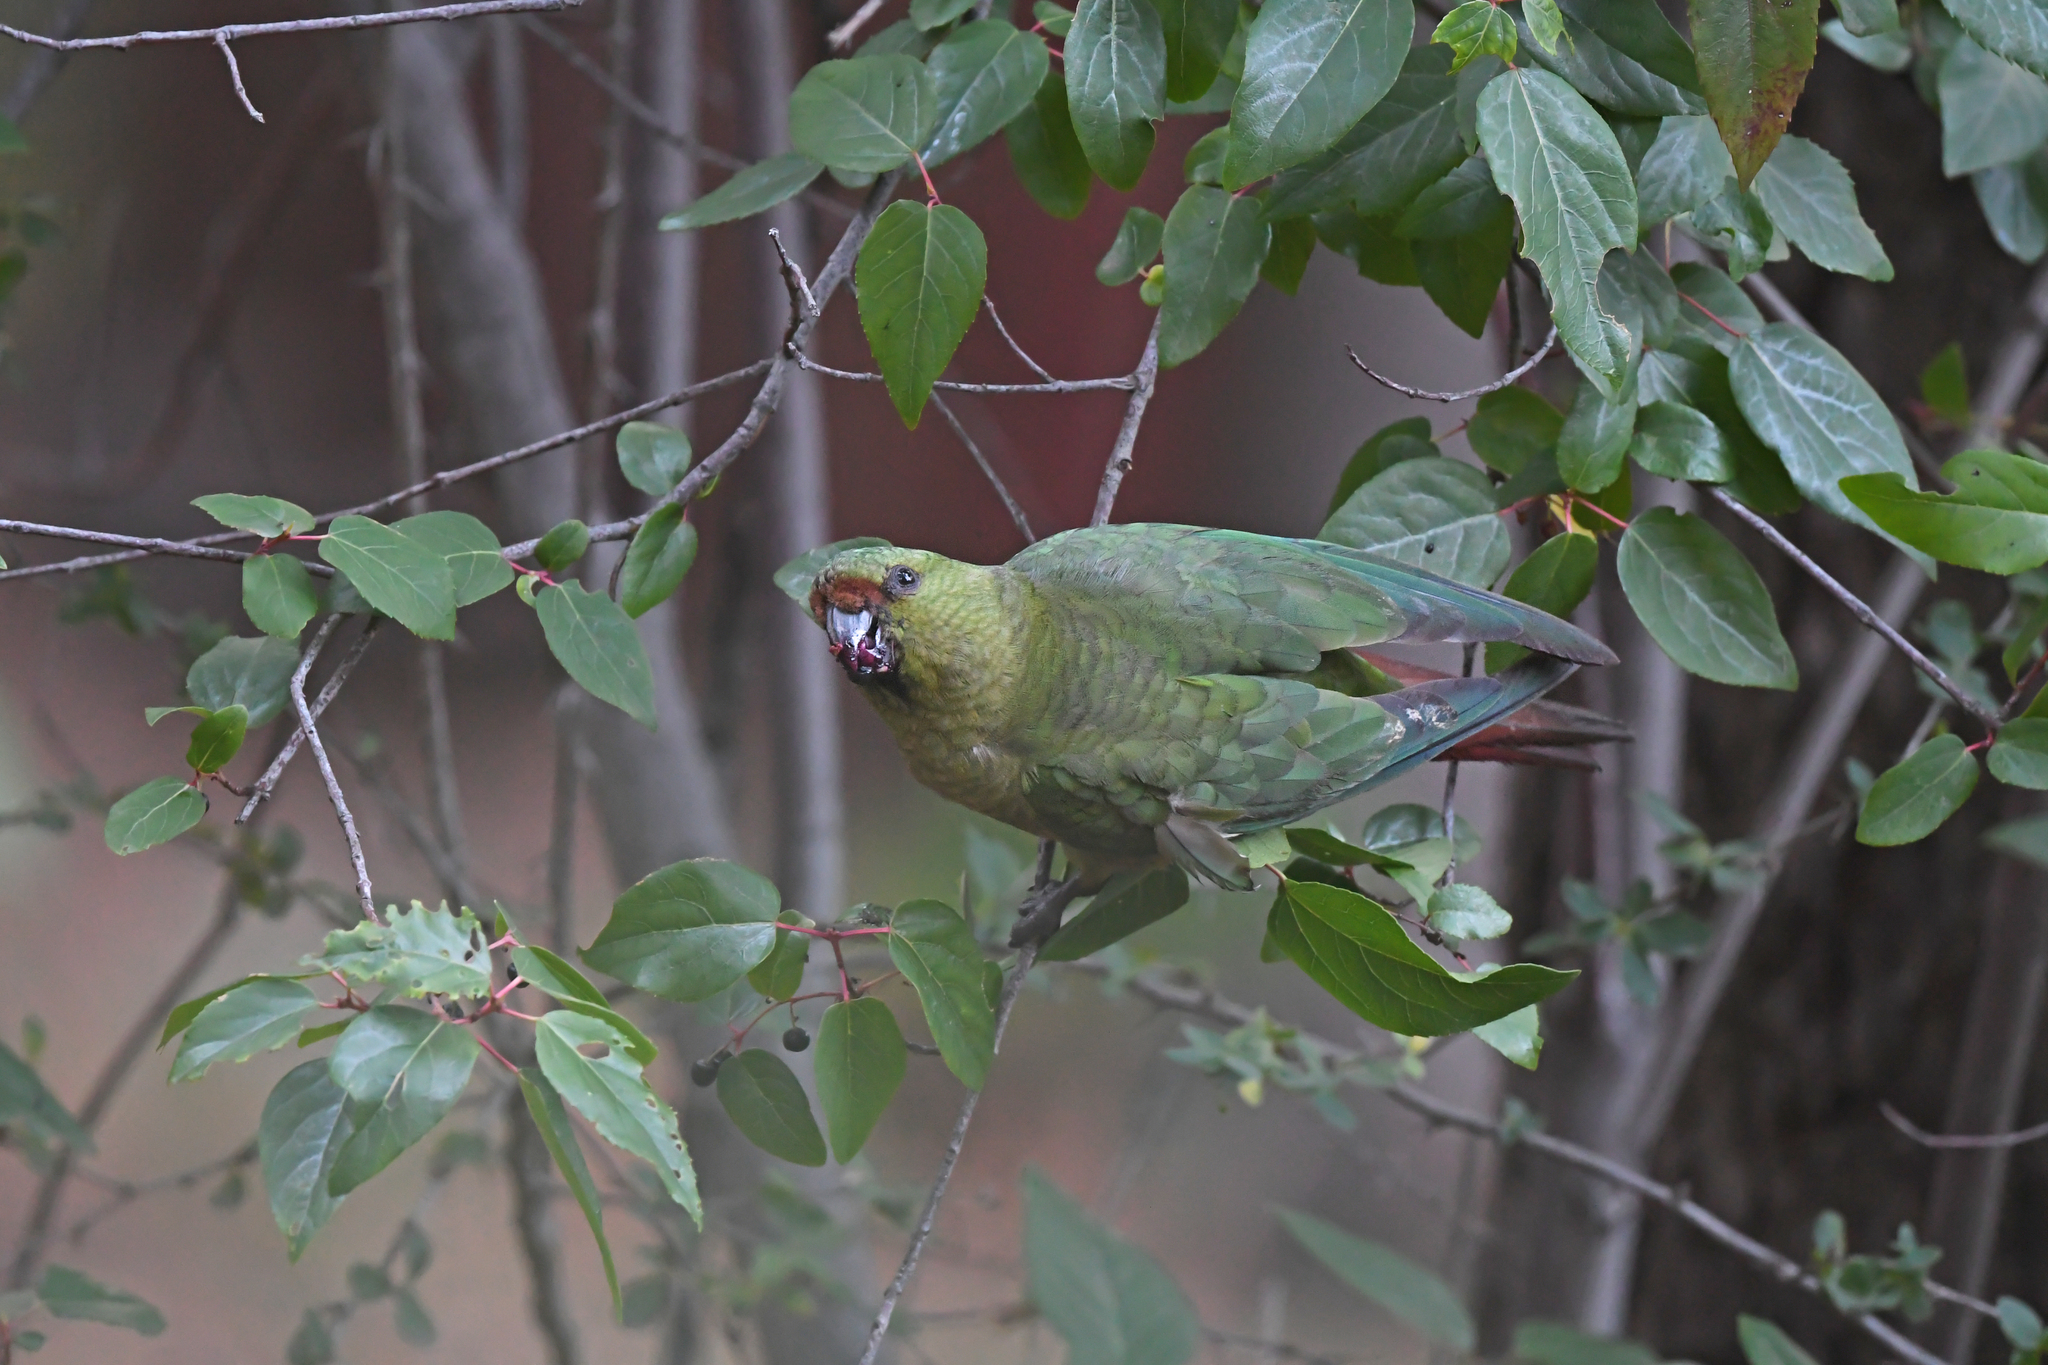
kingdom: Animalia
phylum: Chordata
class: Aves
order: Psittaciformes
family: Psittacidae
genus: Enicognathus
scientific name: Enicognathus ferrugineus
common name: Austral parakeet
